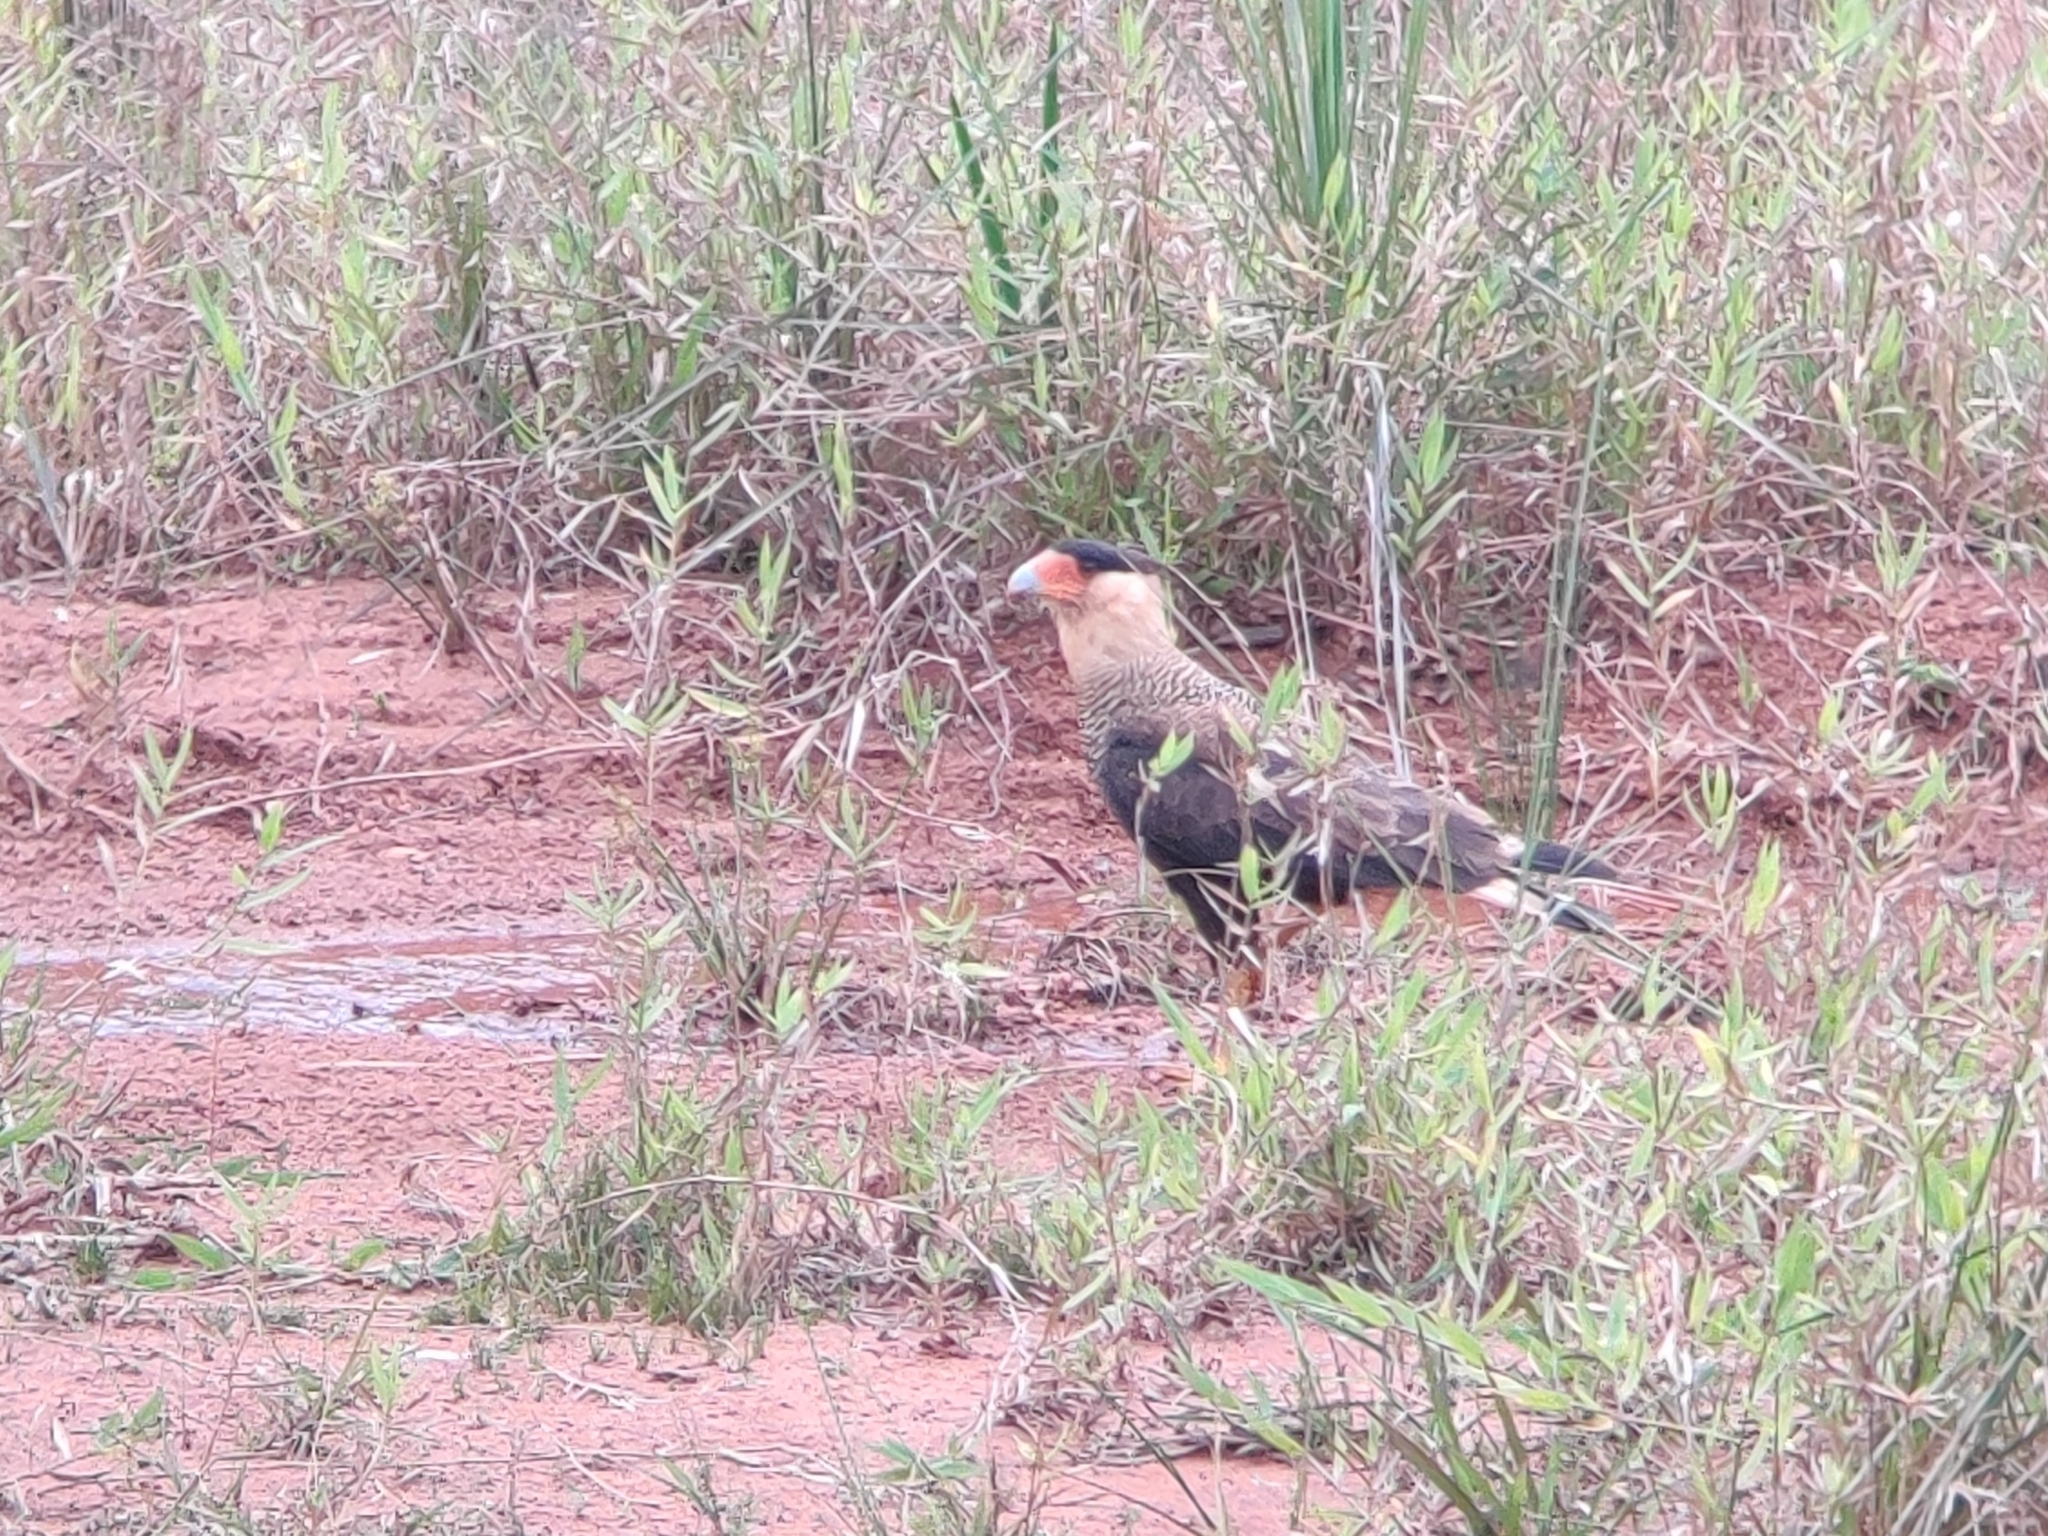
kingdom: Animalia
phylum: Chordata
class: Aves
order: Falconiformes
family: Falconidae
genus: Caracara
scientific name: Caracara plancus
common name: Southern caracara
